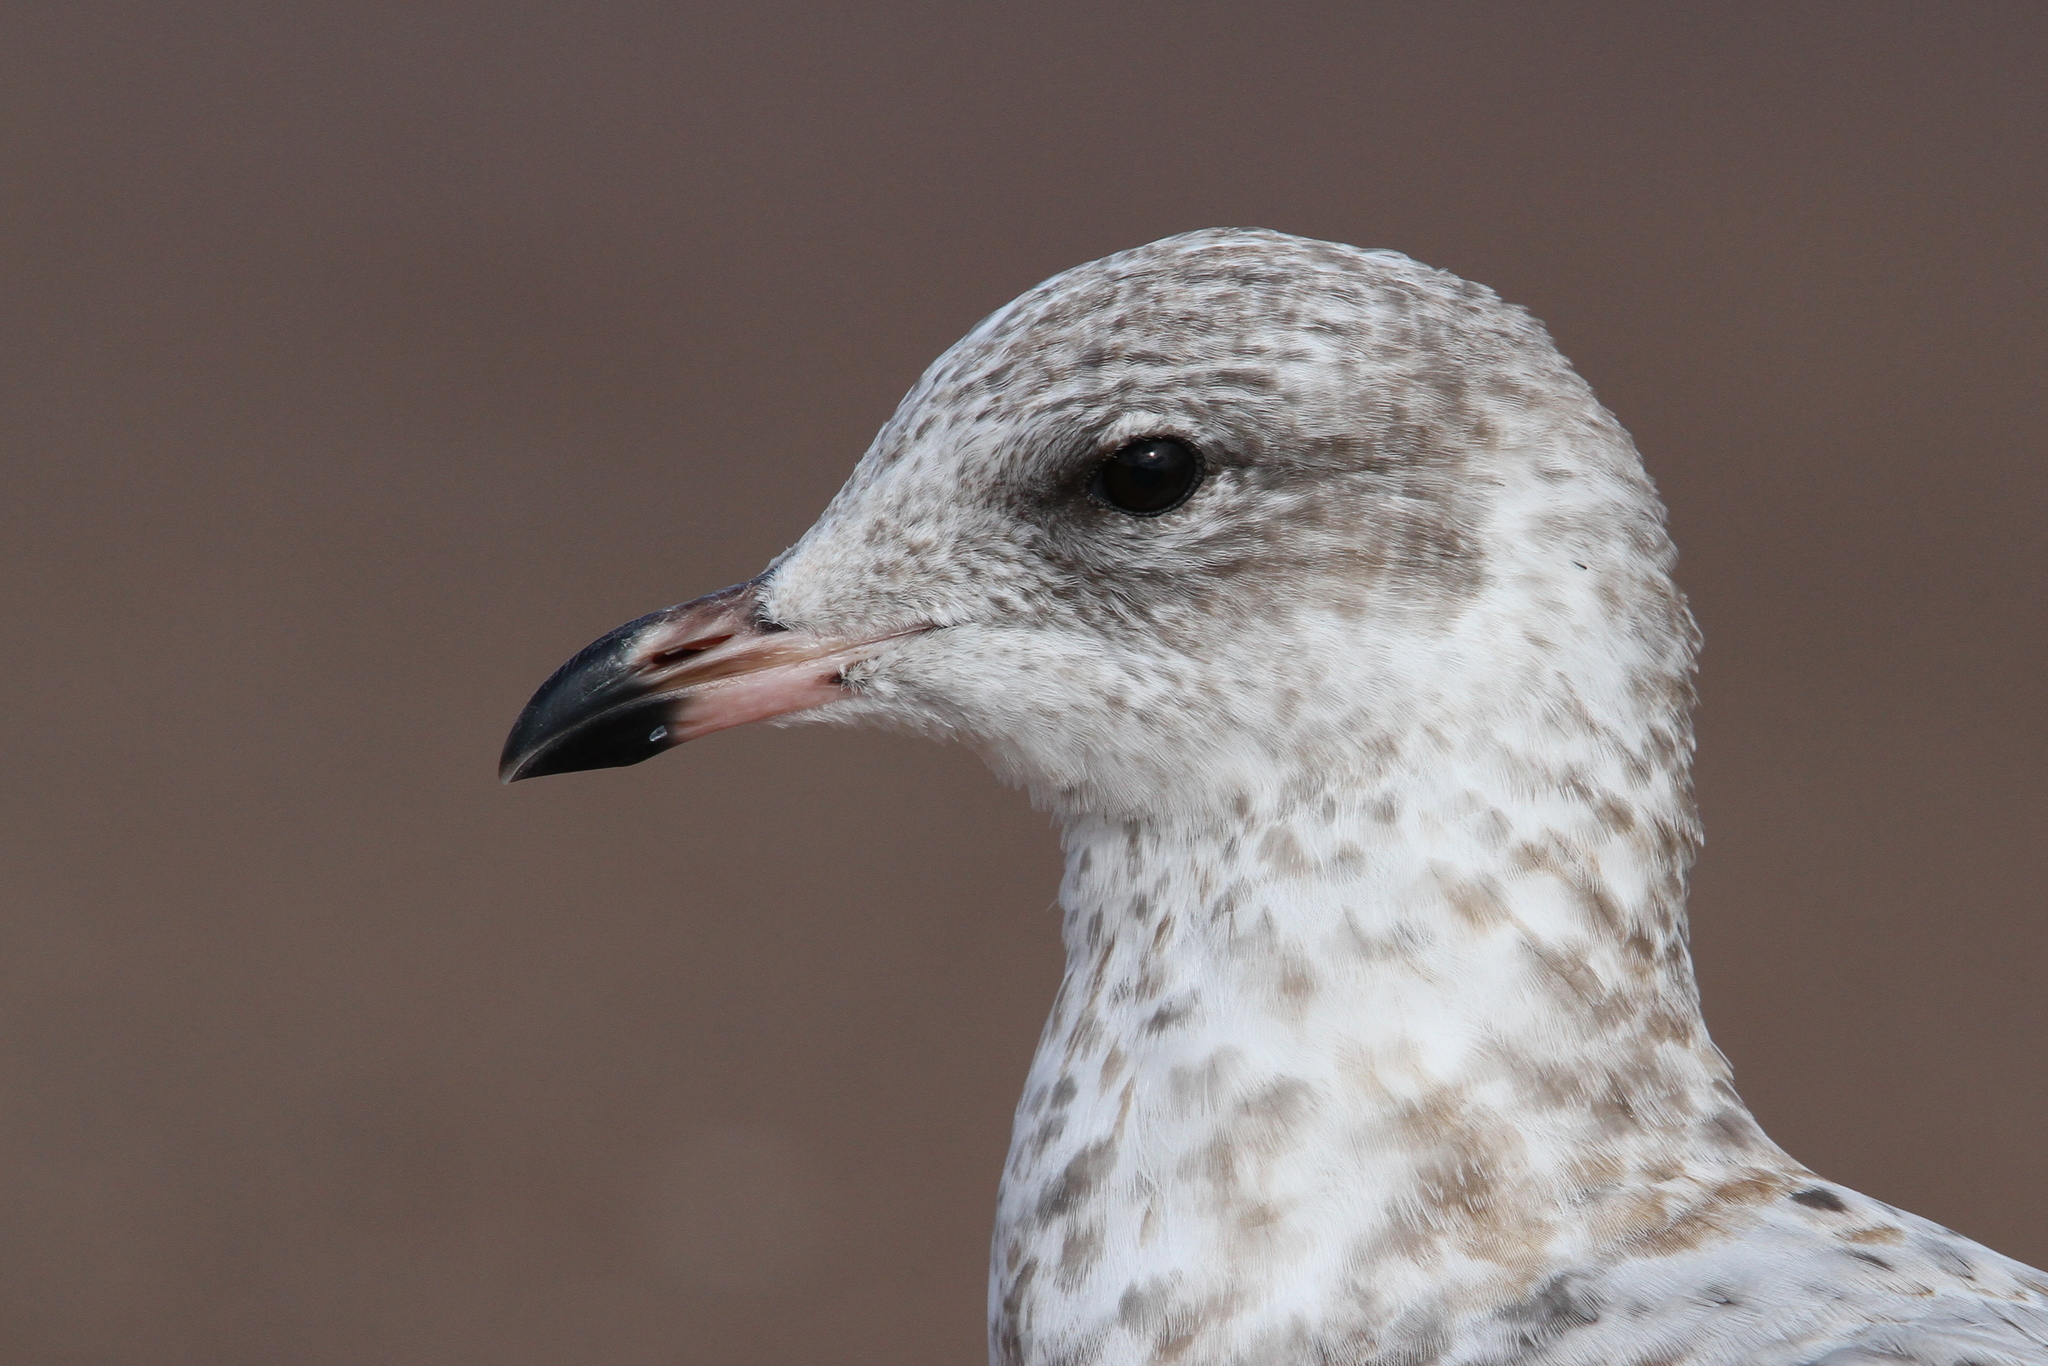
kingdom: Animalia
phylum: Chordata
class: Aves
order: Charadriiformes
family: Laridae
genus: Larus
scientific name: Larus delawarensis
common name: Ring-billed gull
